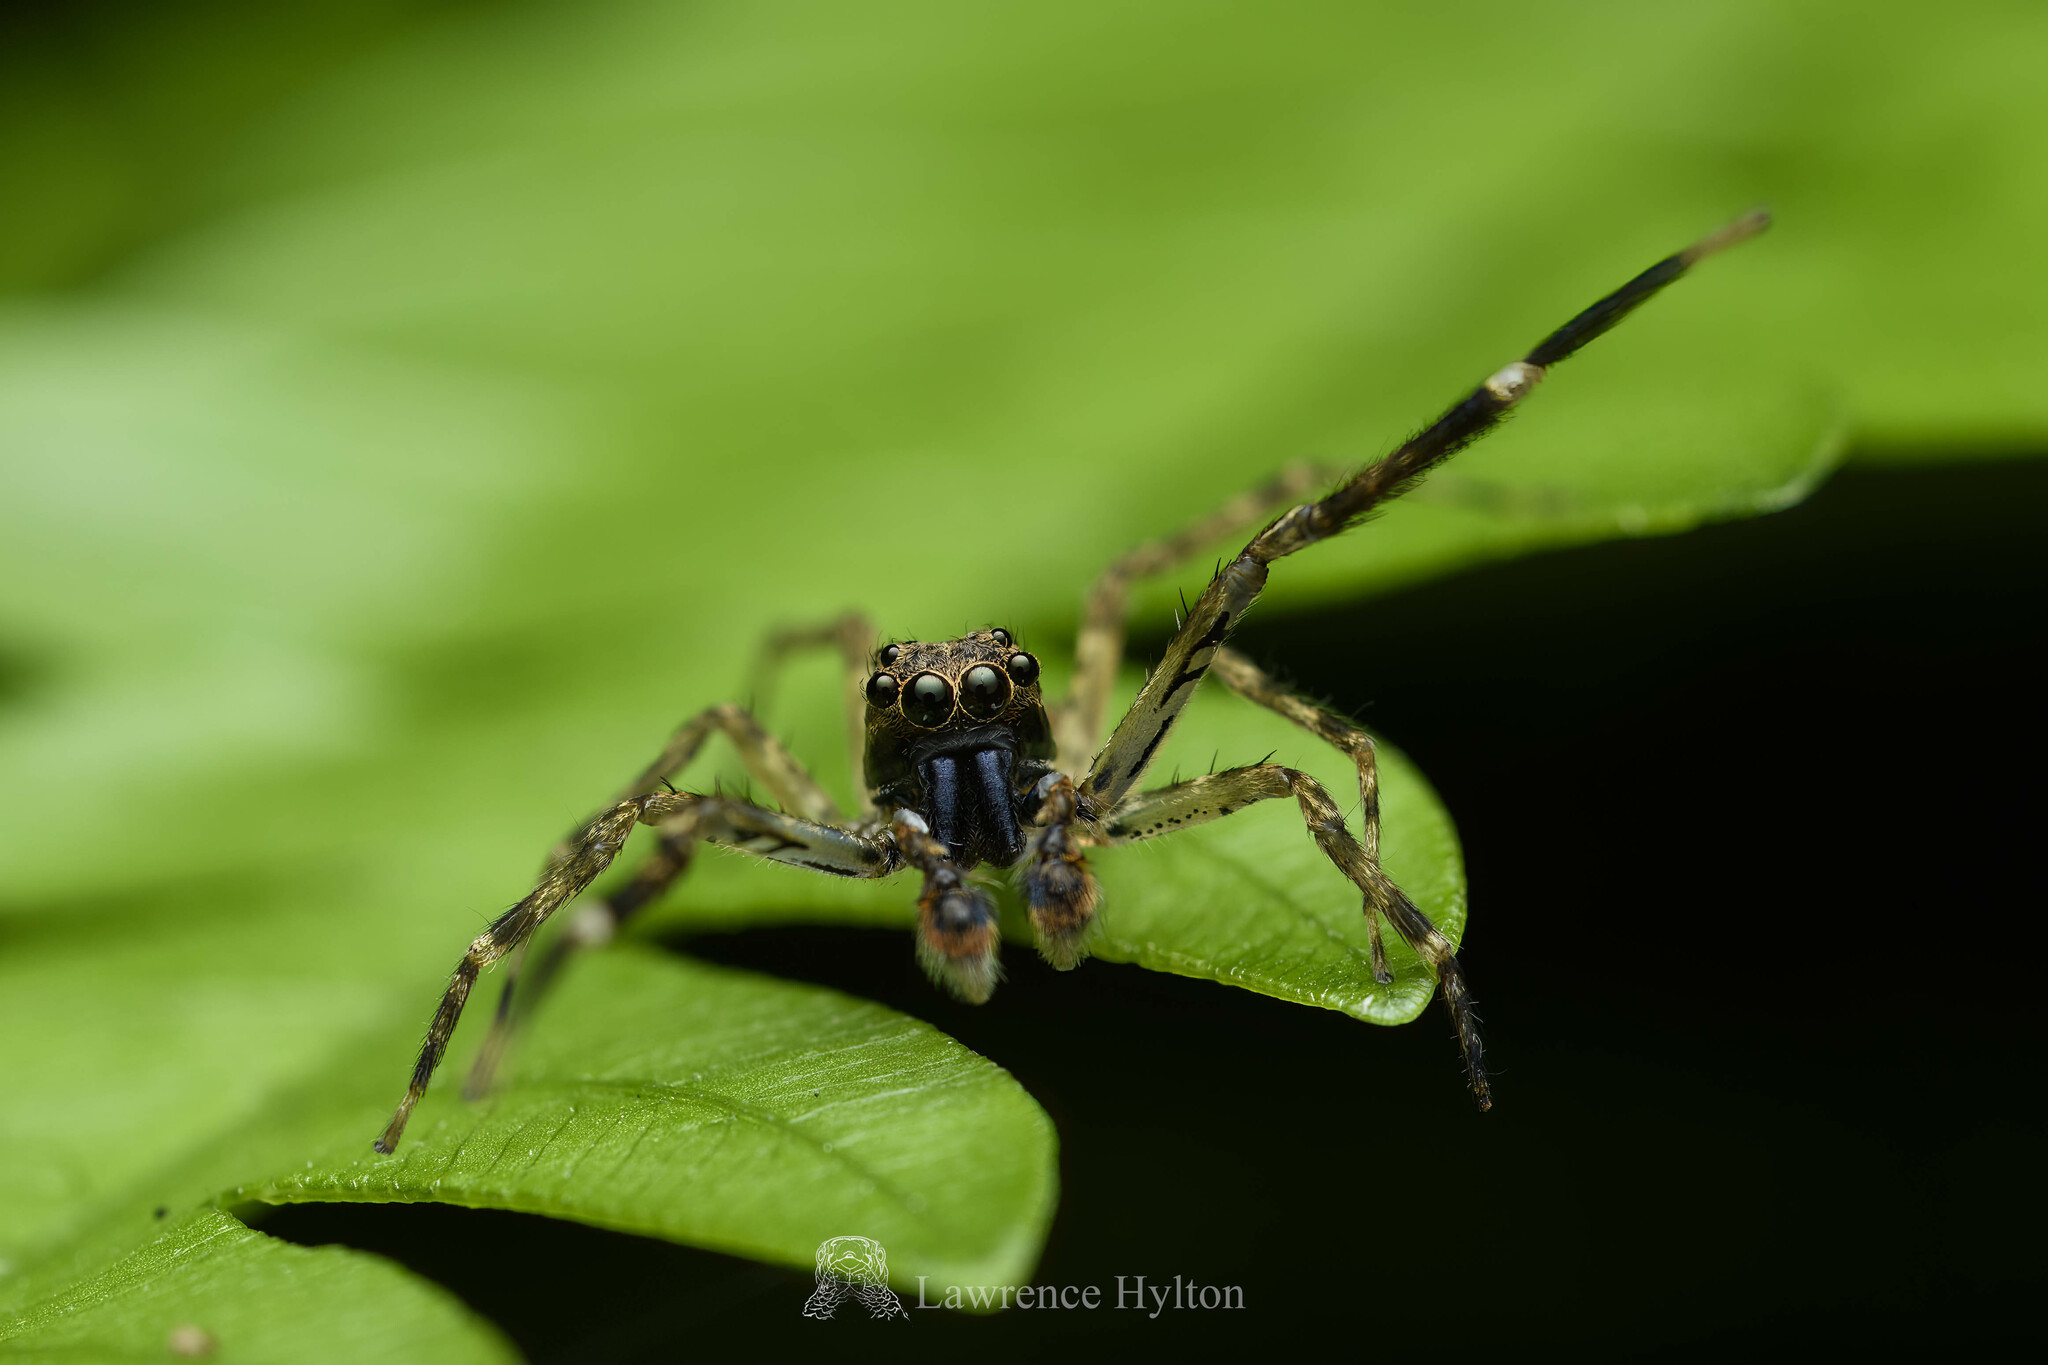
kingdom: Animalia
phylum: Arthropoda
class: Arachnida
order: Araneae
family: Salticidae
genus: Spartaeus
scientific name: Spartaeus zhangi
